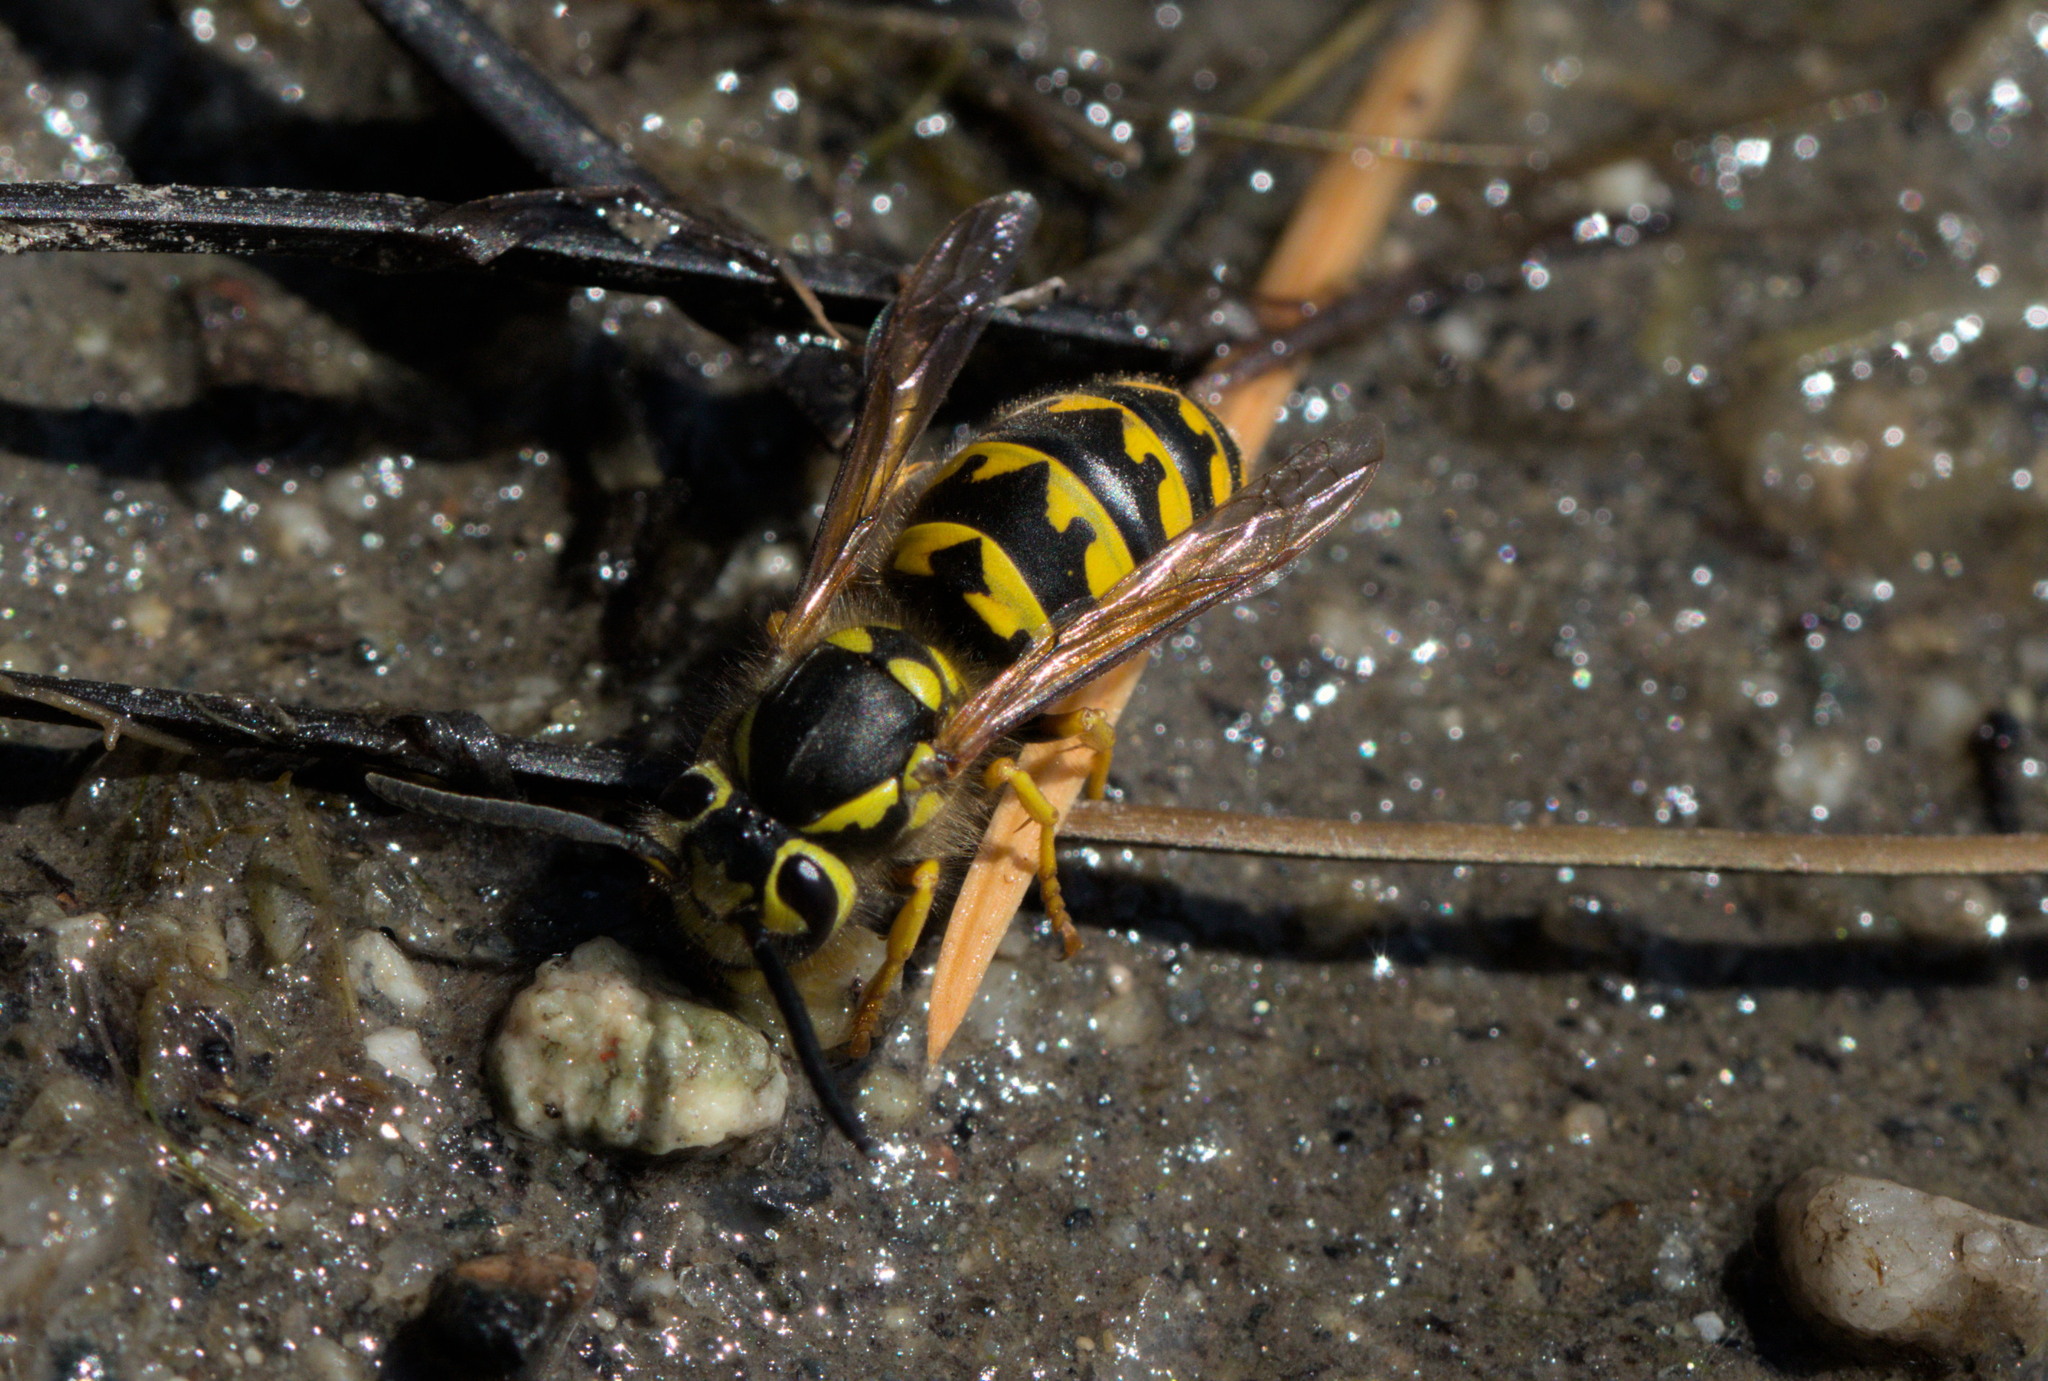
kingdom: Animalia
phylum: Arthropoda
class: Insecta
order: Hymenoptera
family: Vespidae
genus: Vespula
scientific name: Vespula pensylvanica
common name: Western yellowjacket
